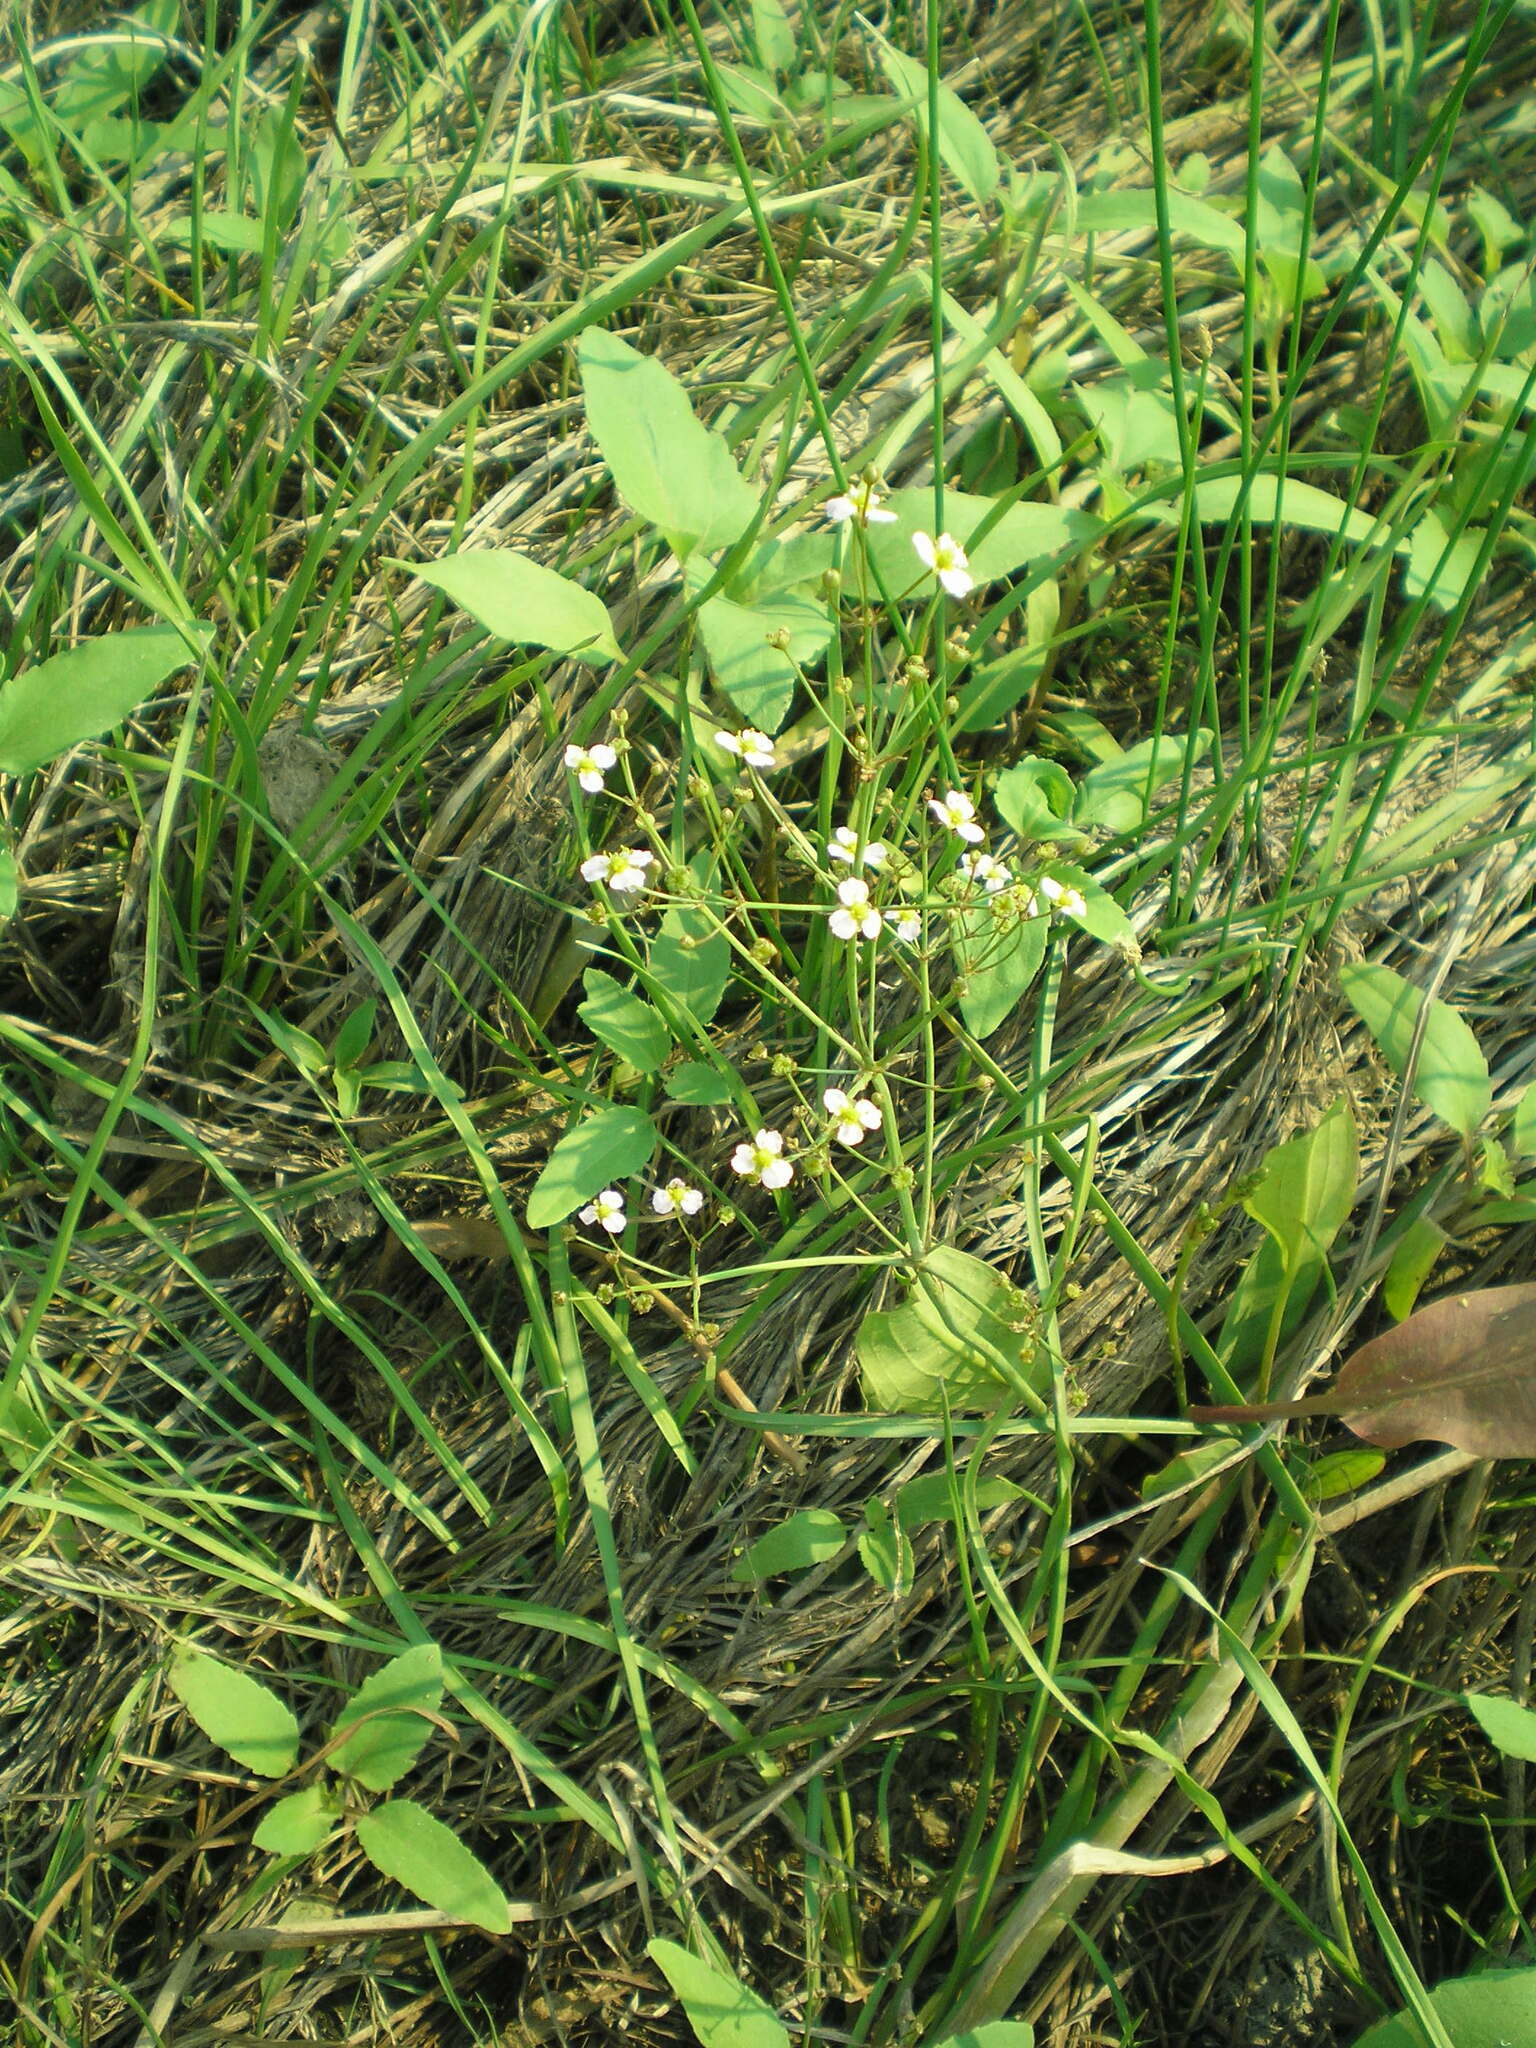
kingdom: Plantae
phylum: Tracheophyta
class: Liliopsida
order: Alismatales
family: Alismataceae
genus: Alisma
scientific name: Alisma plantago-aquatica
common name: Water-plantain
